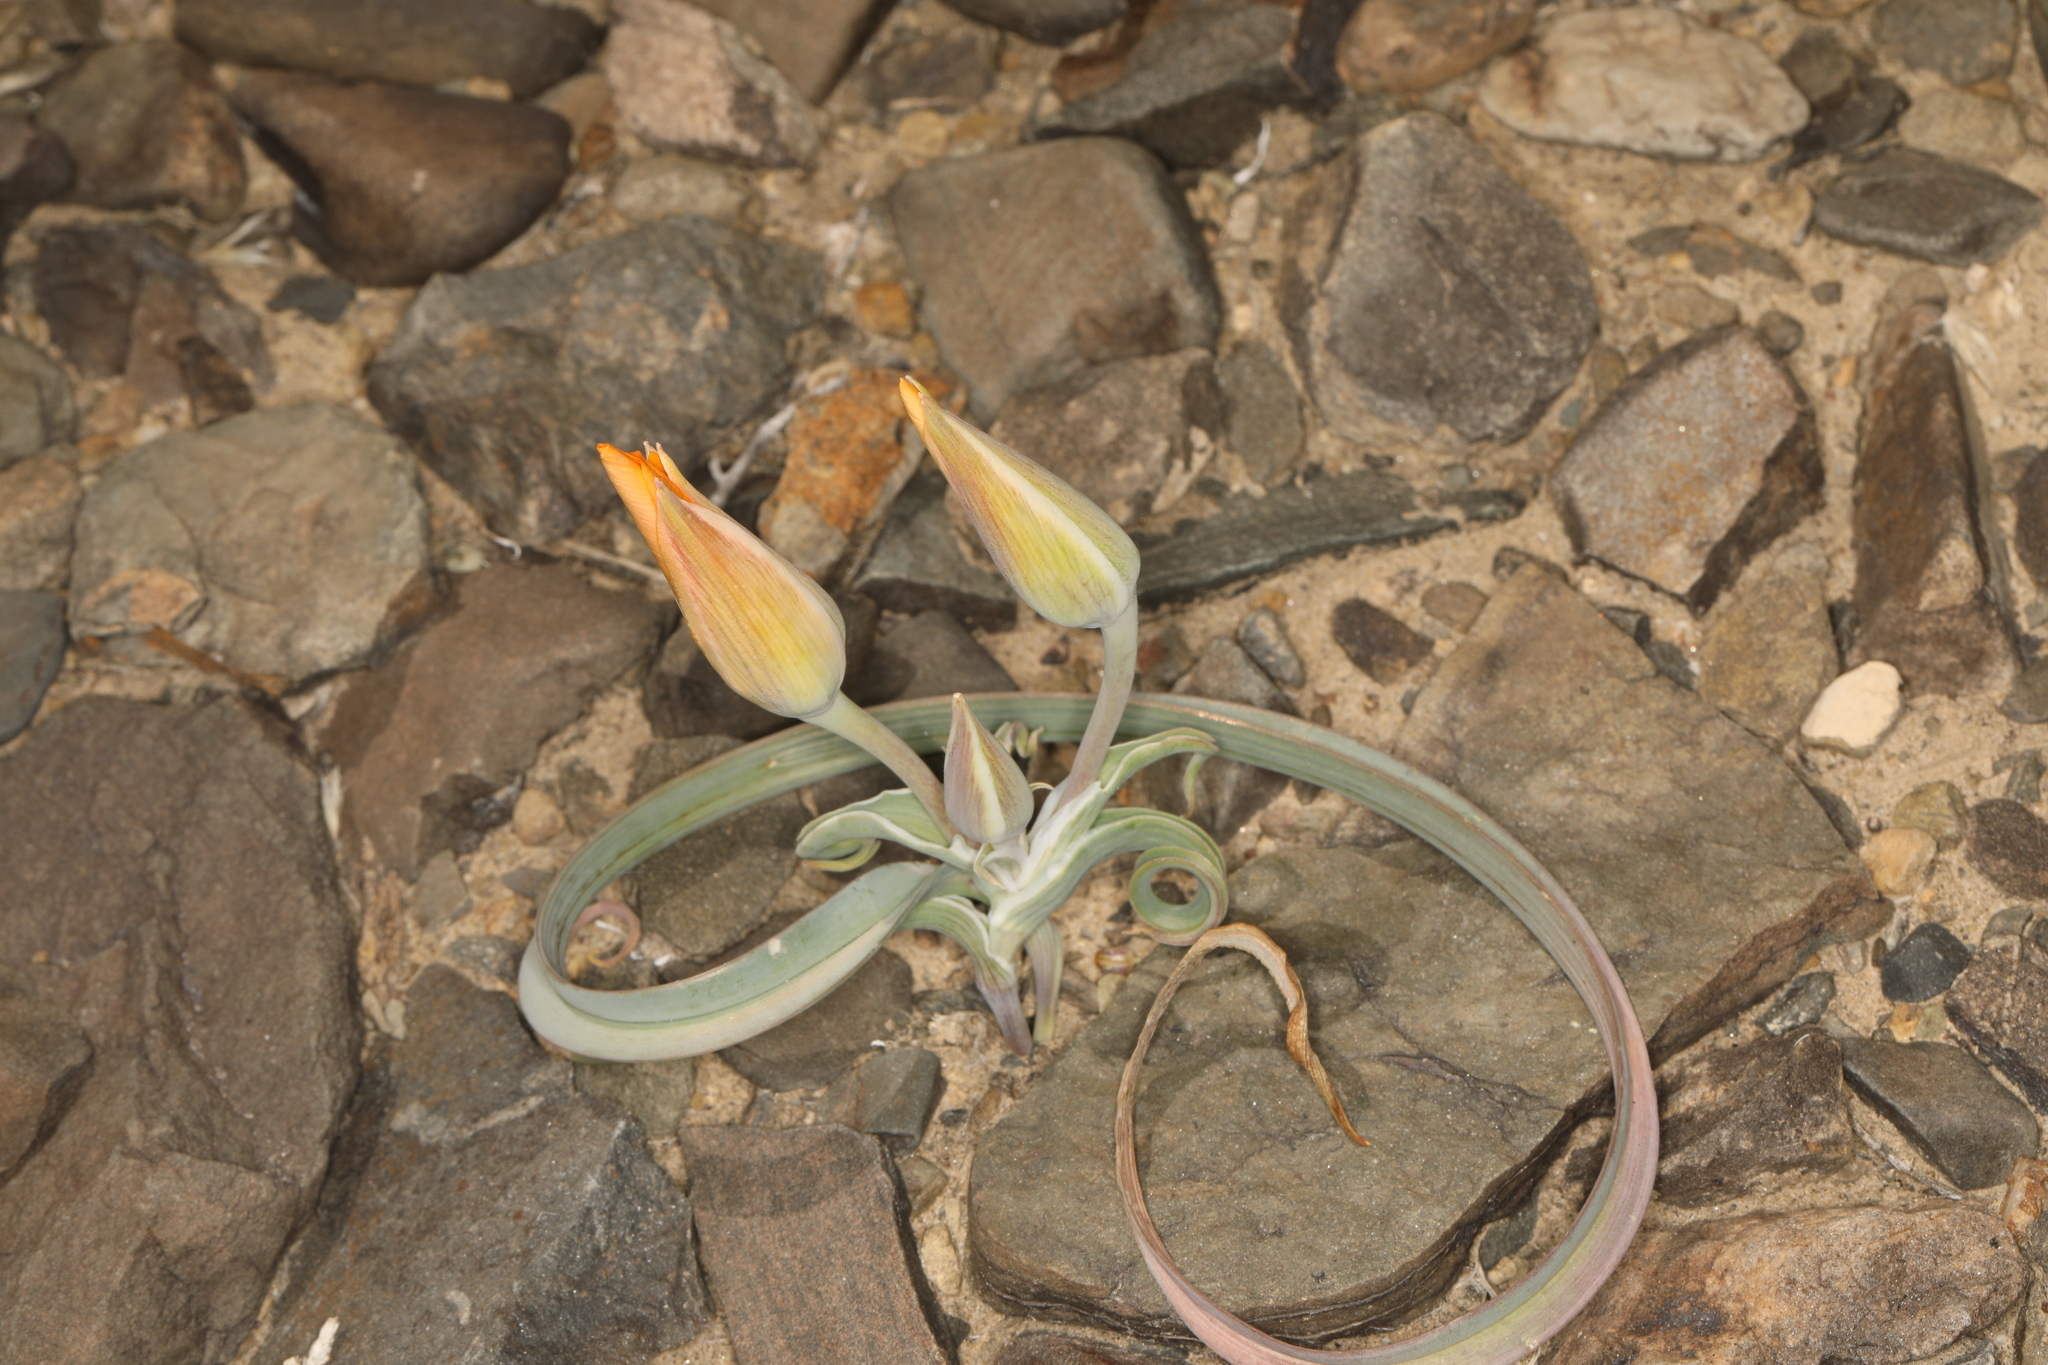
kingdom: Plantae
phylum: Tracheophyta
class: Liliopsida
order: Liliales
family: Liliaceae
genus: Calochortus
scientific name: Calochortus kennedyi
